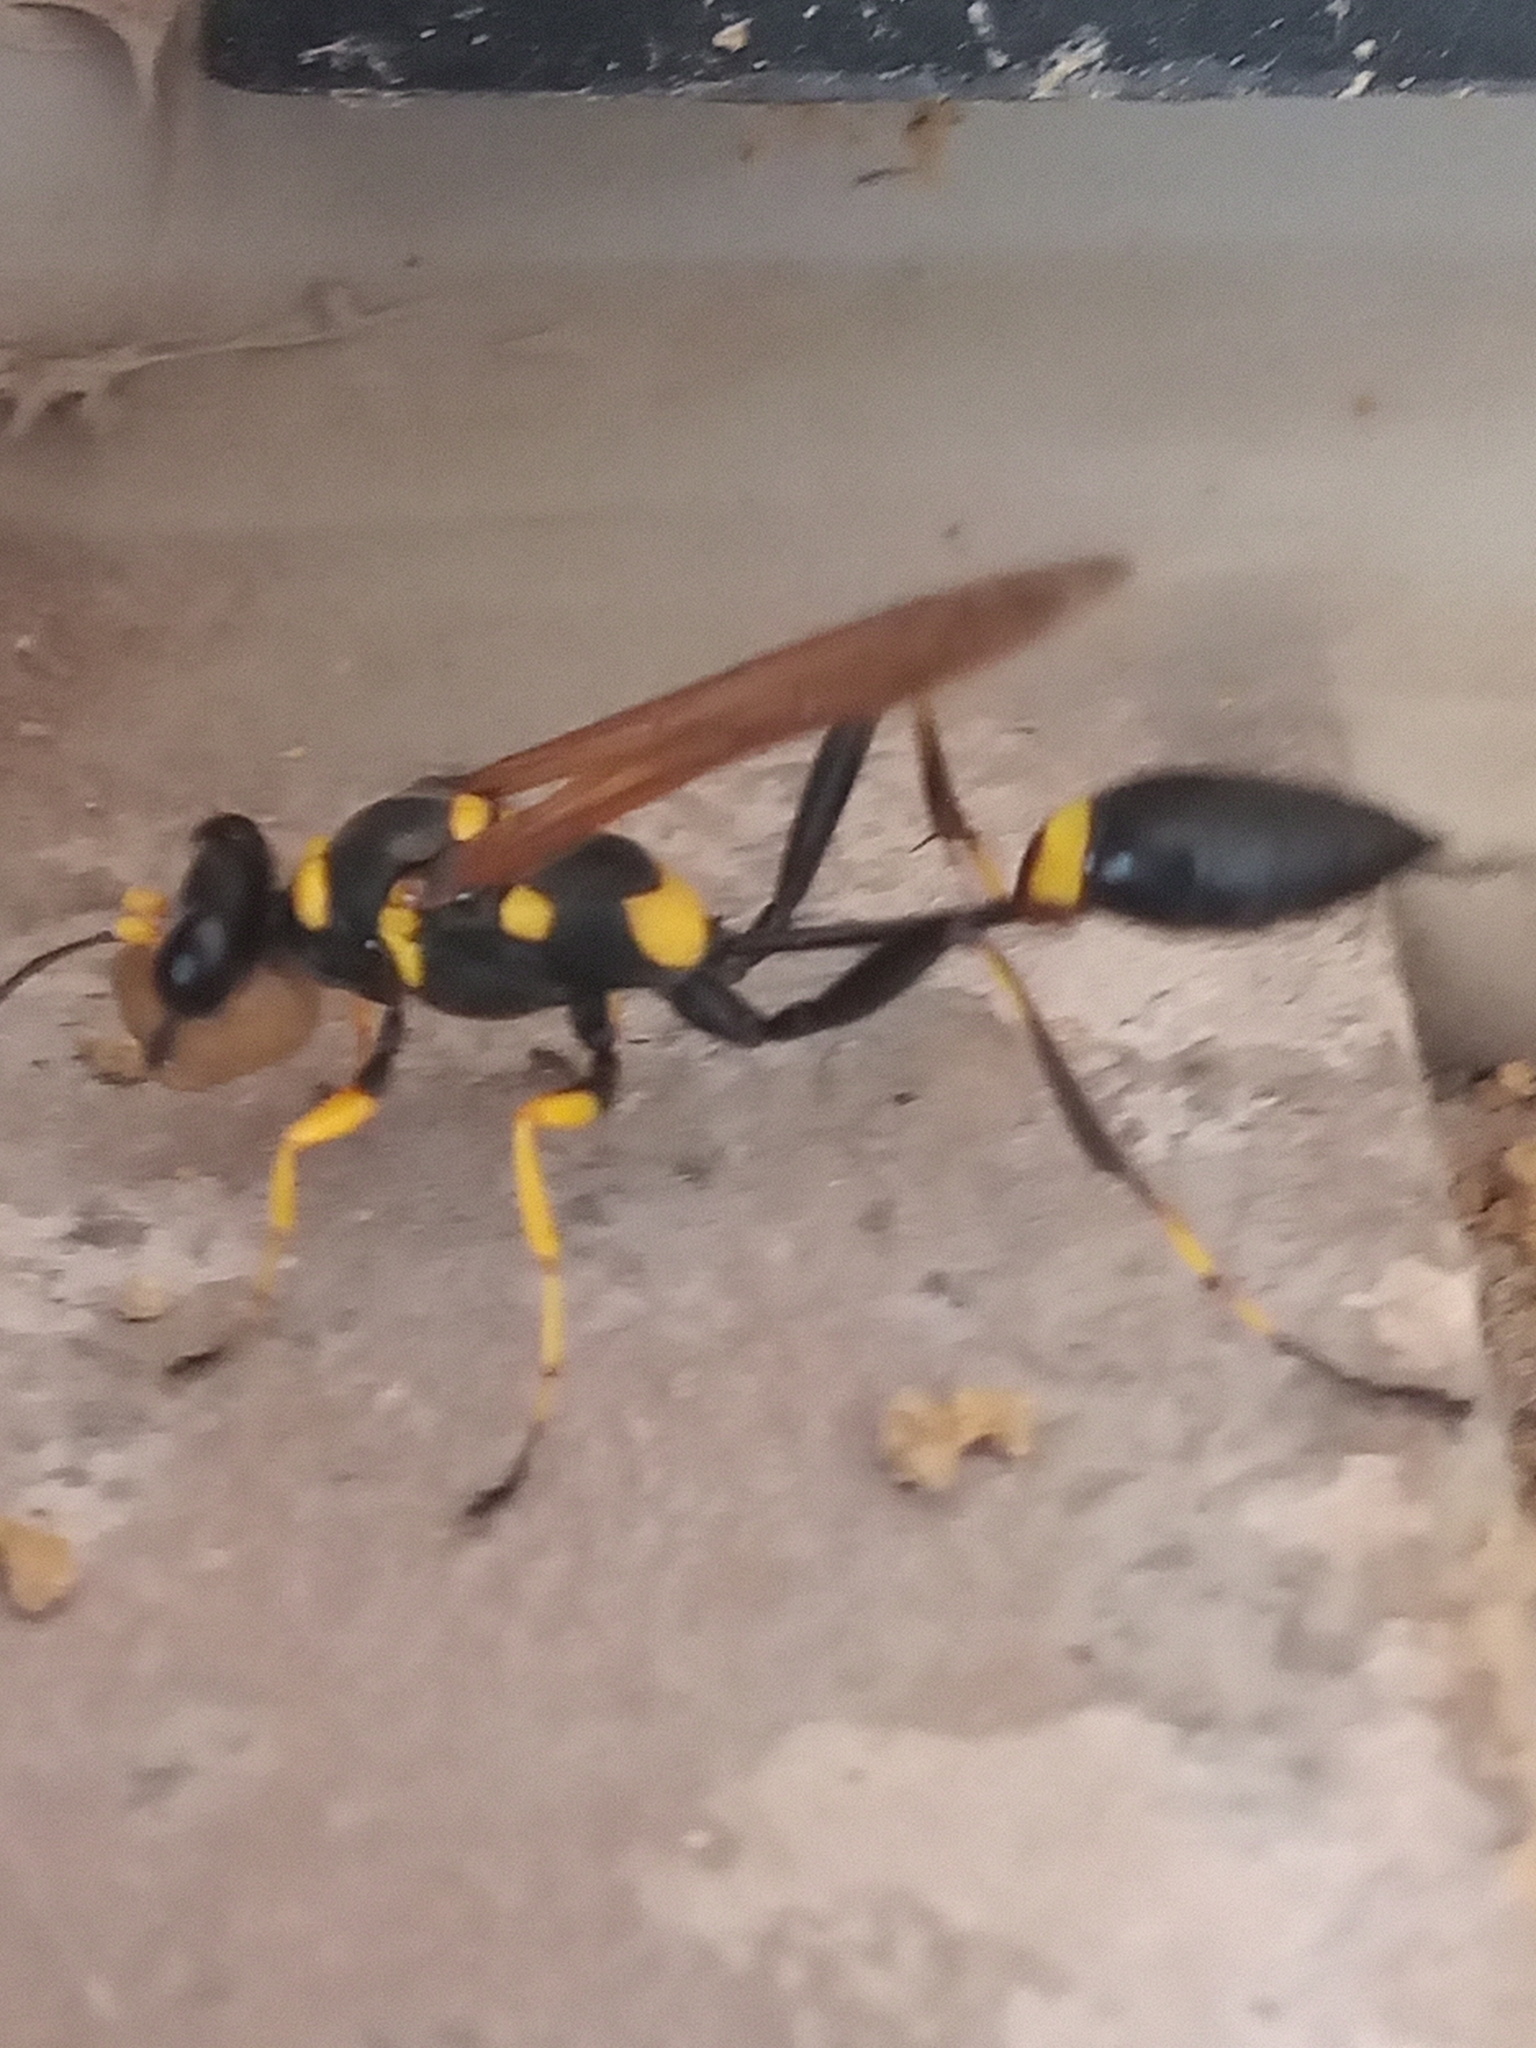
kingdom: Animalia
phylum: Arthropoda
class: Insecta
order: Hymenoptera
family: Sphecidae
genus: Sceliphron
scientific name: Sceliphron assimile
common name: Clayman's mud dauber
